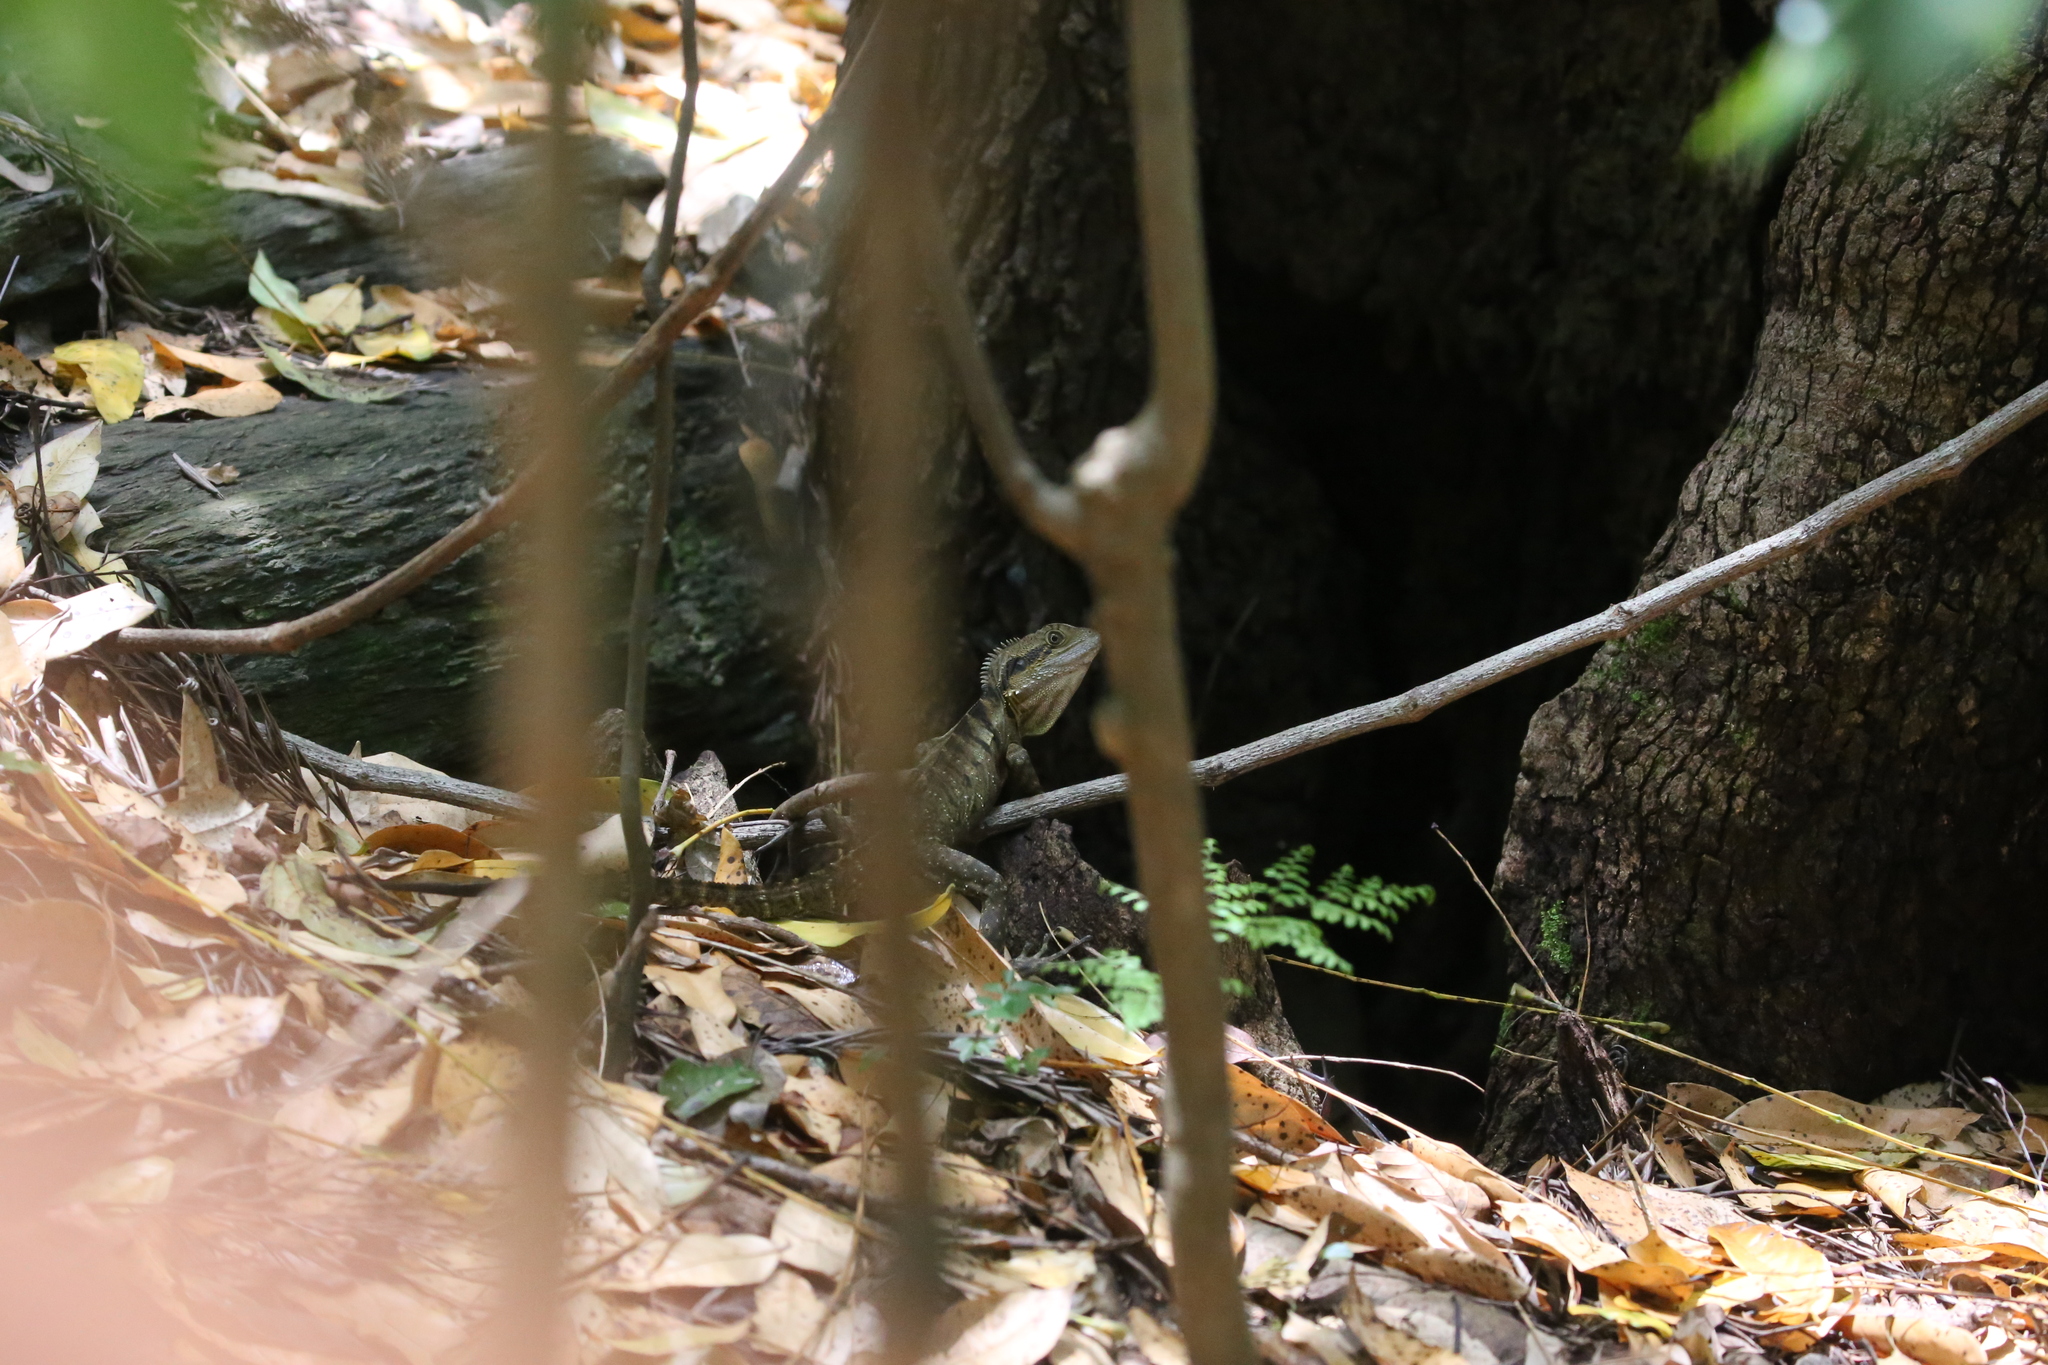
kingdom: Animalia
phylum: Chordata
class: Squamata
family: Agamidae
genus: Intellagama
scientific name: Intellagama lesueurii
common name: Eastern water dragon
